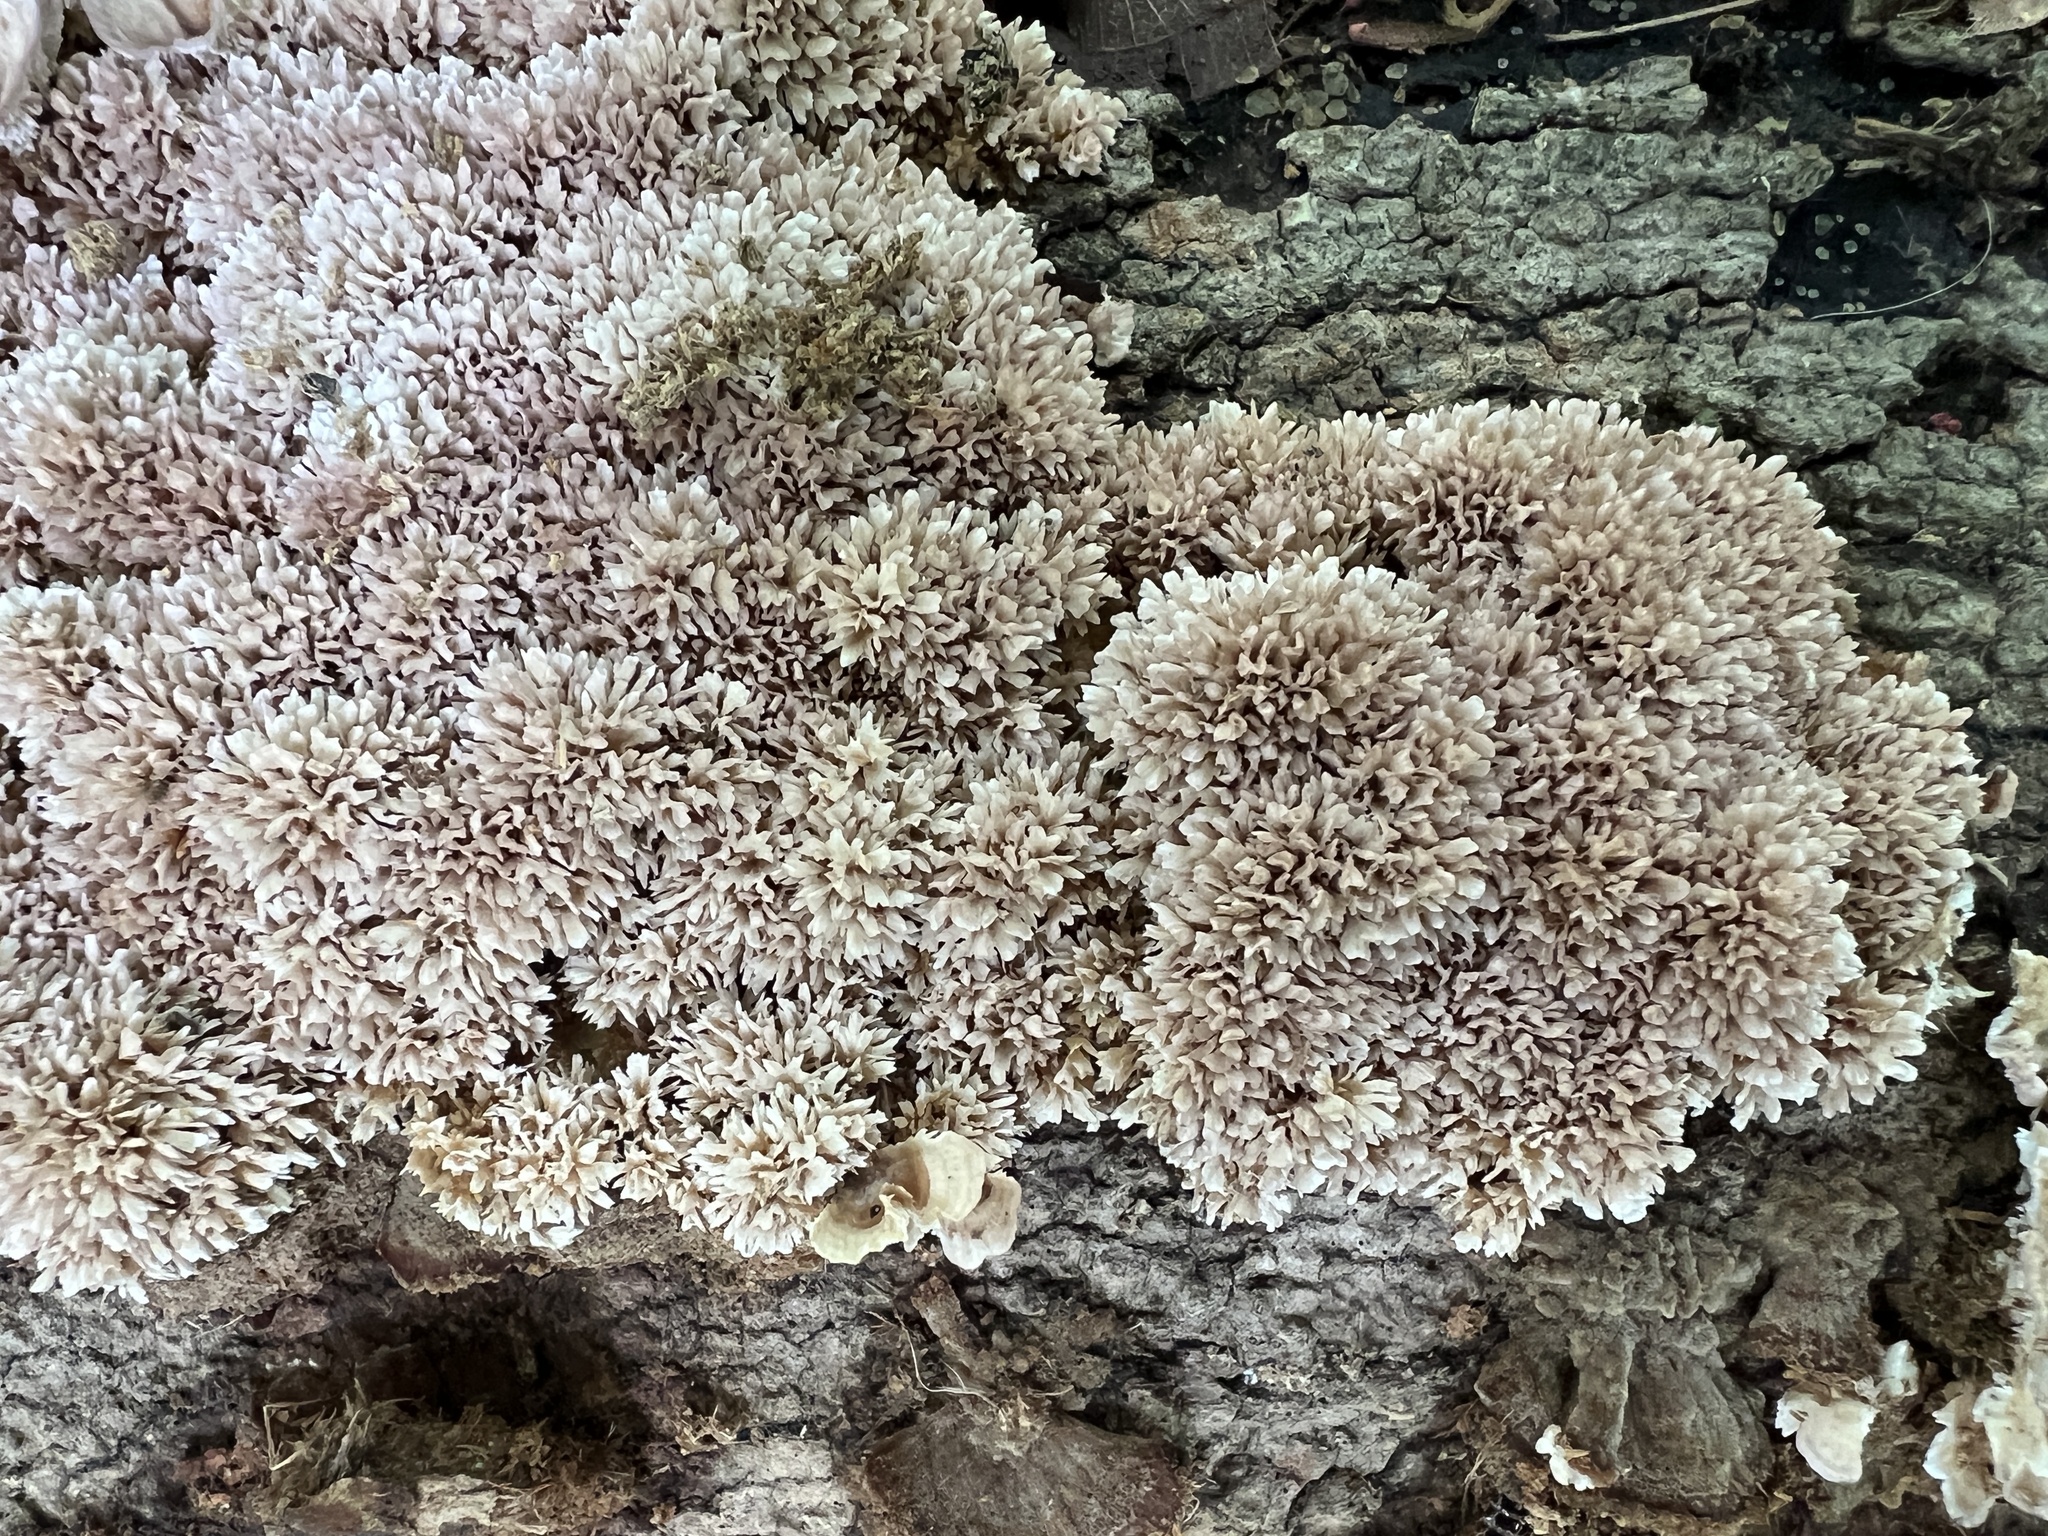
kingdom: Fungi
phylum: Basidiomycota
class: Agaricomycetes
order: Hymenochaetales
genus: Trichaptum
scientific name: Trichaptum biforme
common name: Violet-toothed polypore
